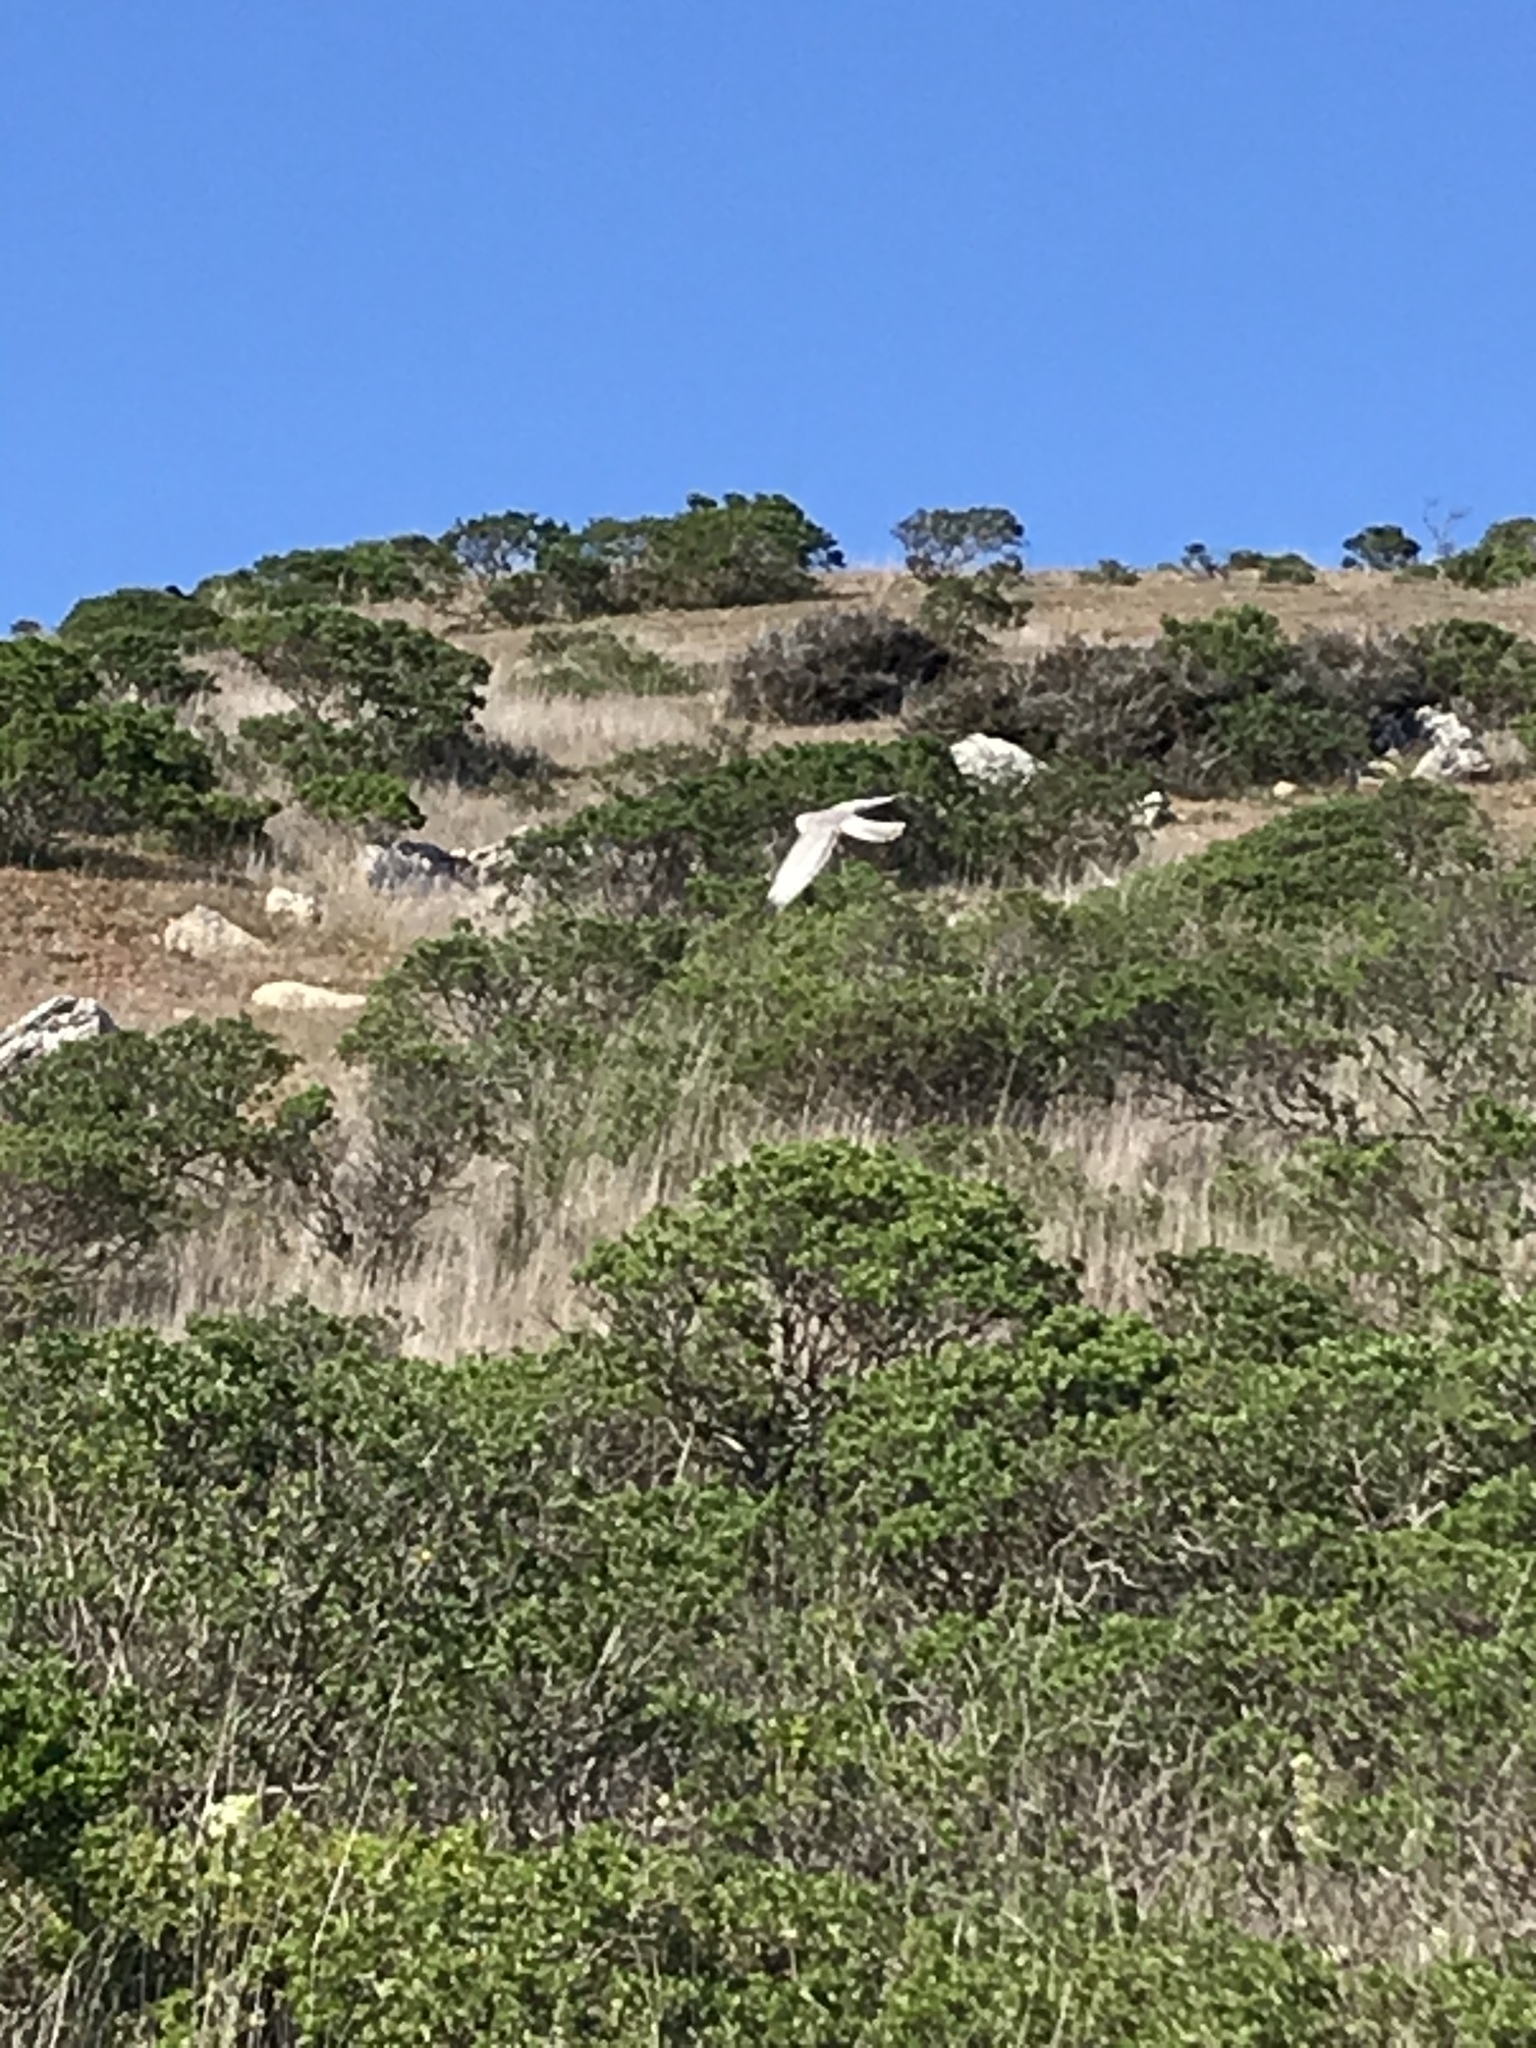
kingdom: Animalia
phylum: Chordata
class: Aves
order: Accipitriformes
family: Accipitridae
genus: Circus
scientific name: Circus cyaneus
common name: Hen harrier
